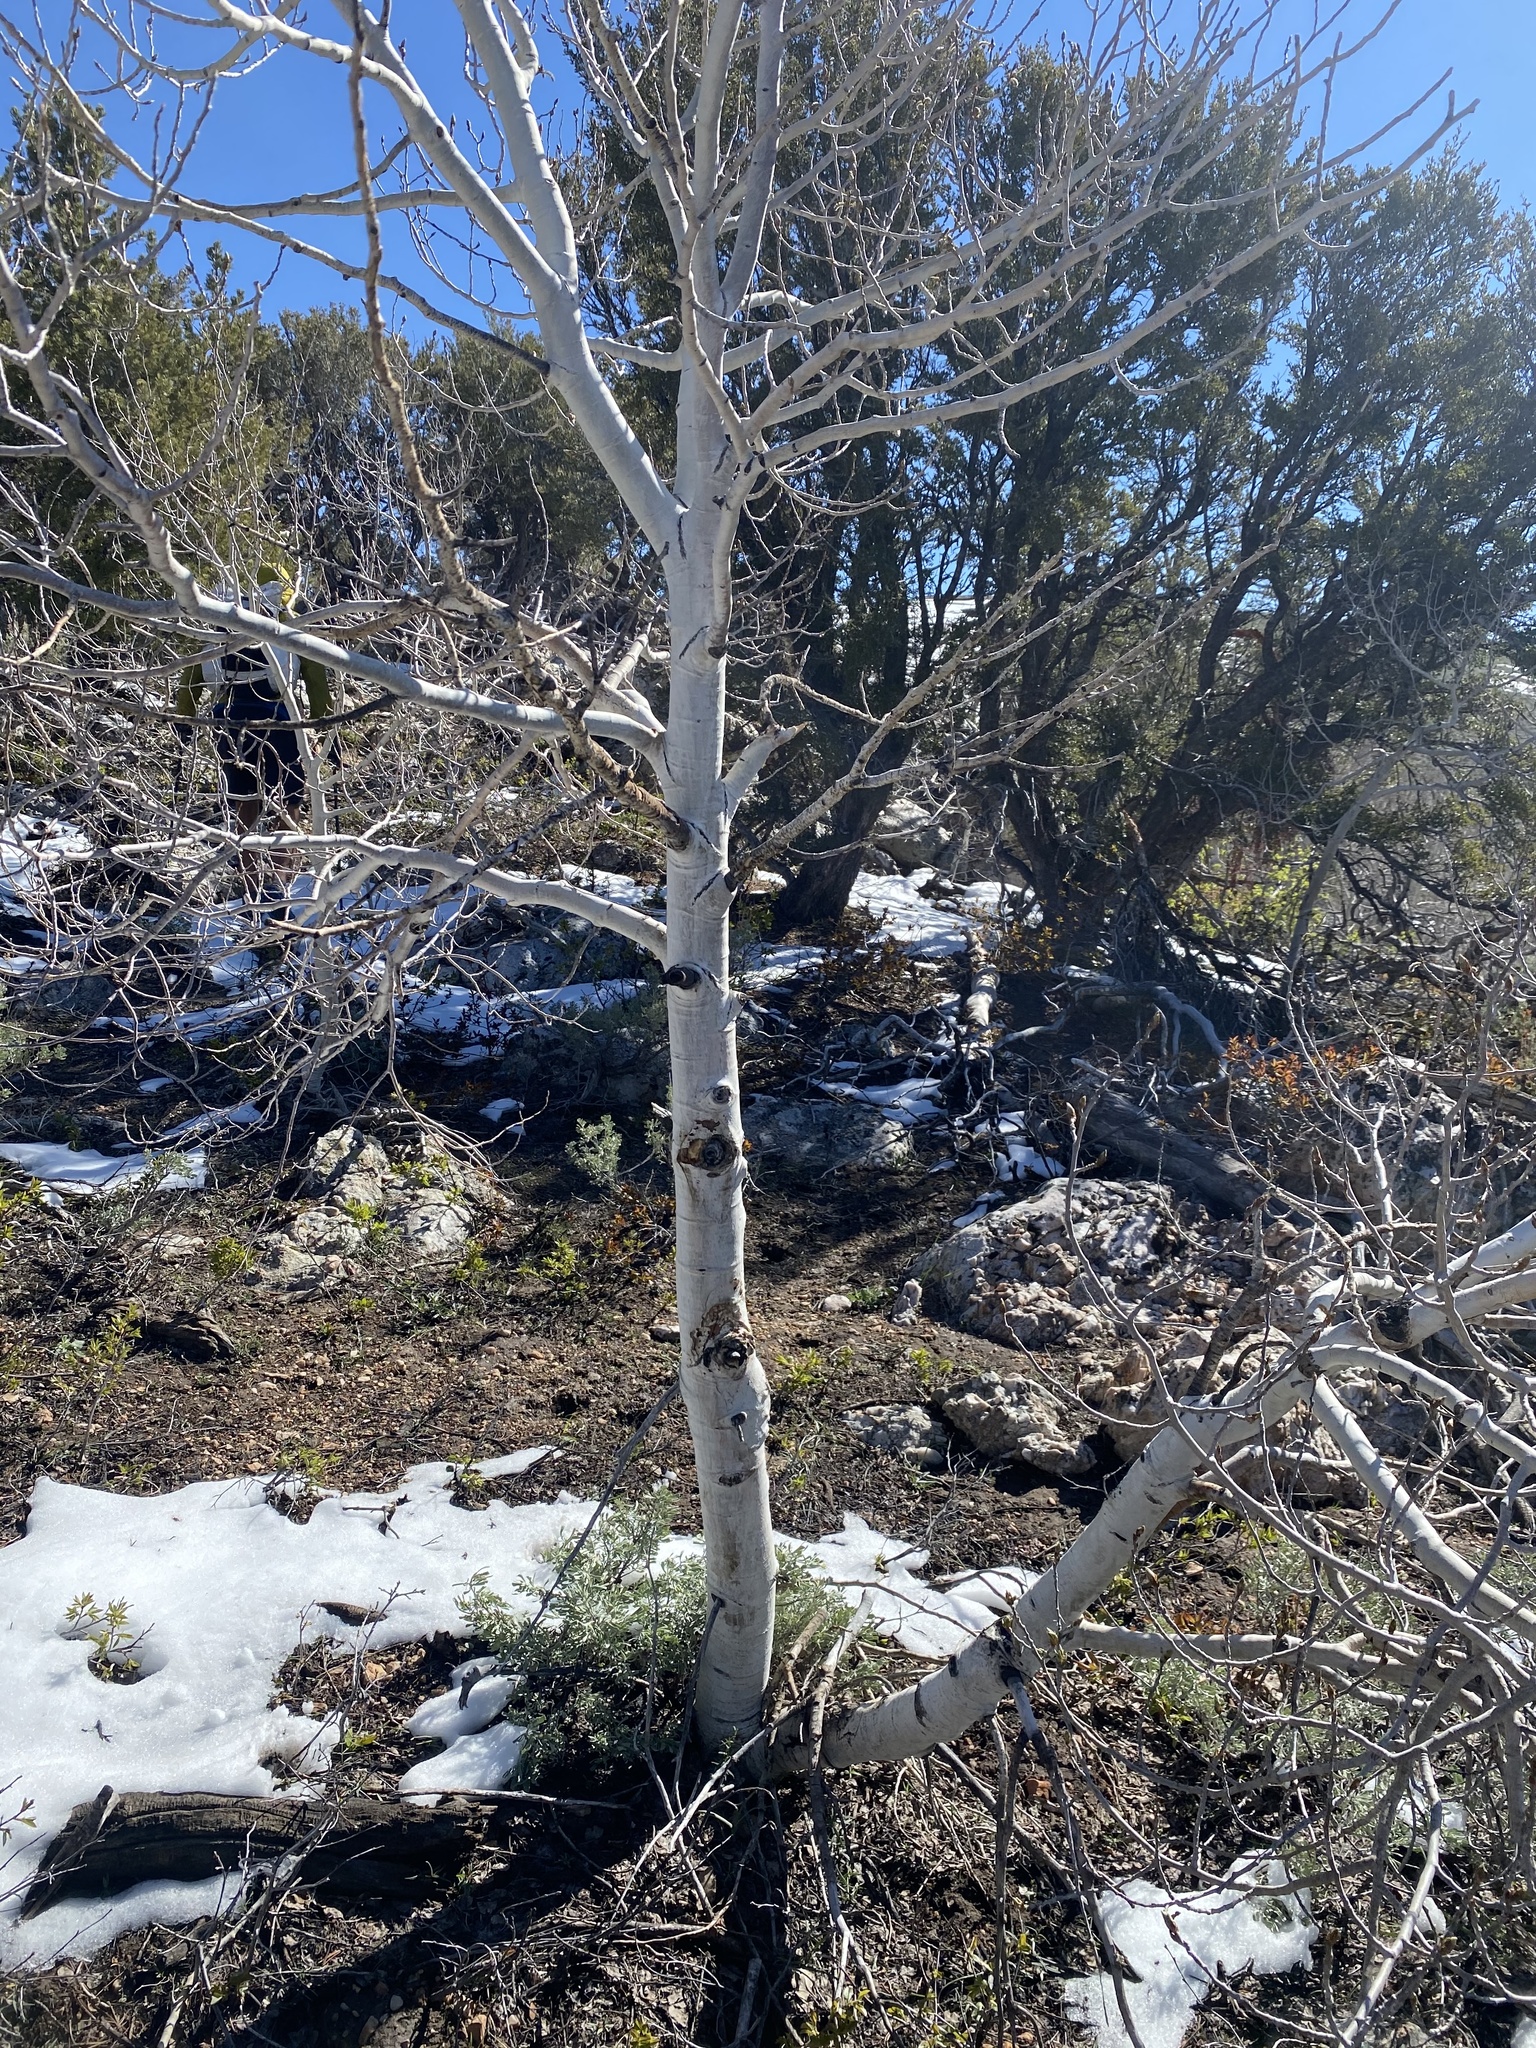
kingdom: Plantae
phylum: Tracheophyta
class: Magnoliopsida
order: Malpighiales
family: Salicaceae
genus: Populus
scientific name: Populus tremuloides
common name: Quaking aspen
